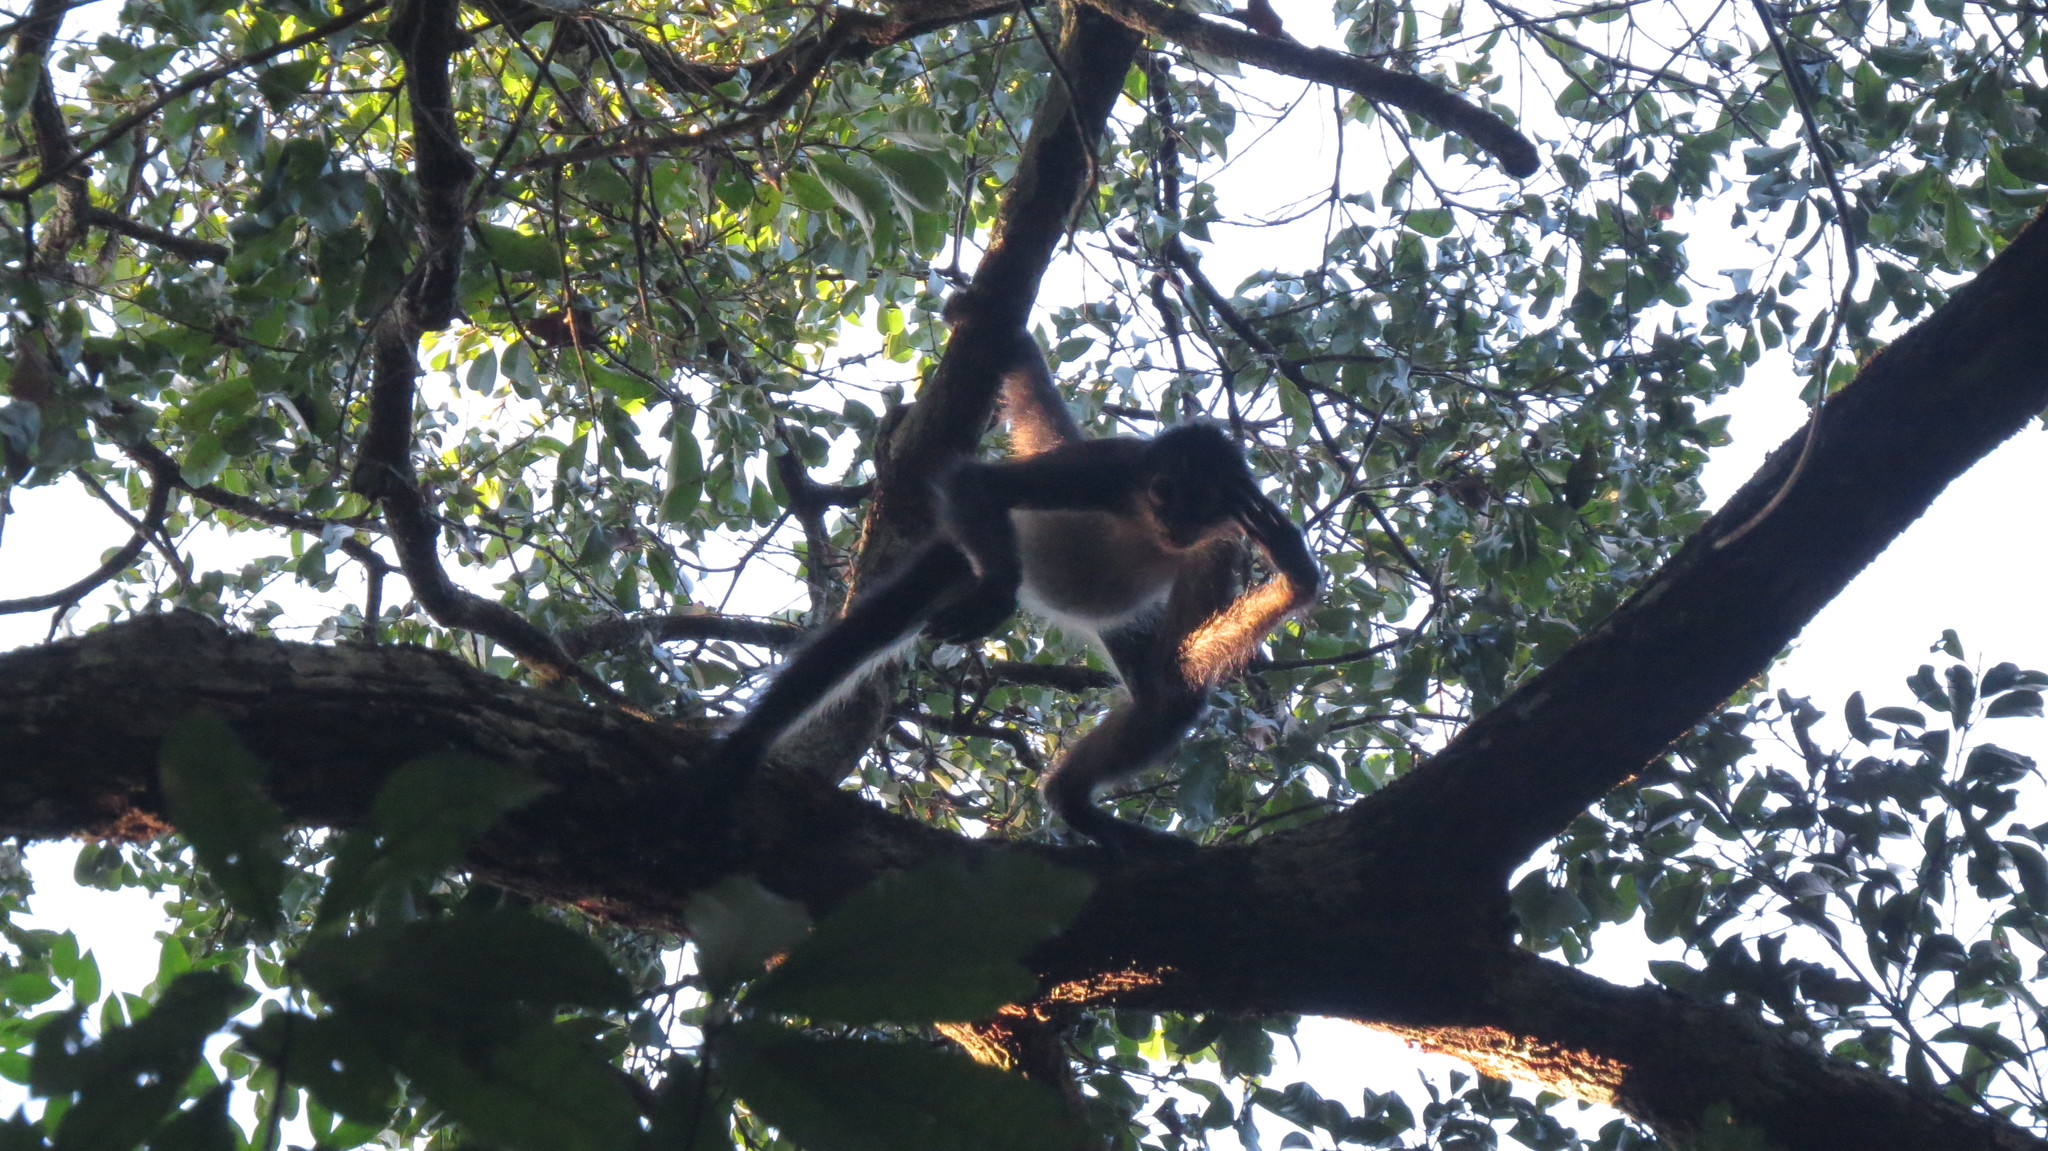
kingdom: Animalia
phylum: Chordata
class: Mammalia
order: Primates
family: Atelidae
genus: Ateles
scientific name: Ateles geoffroyi
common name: Black-handed spider monkey
